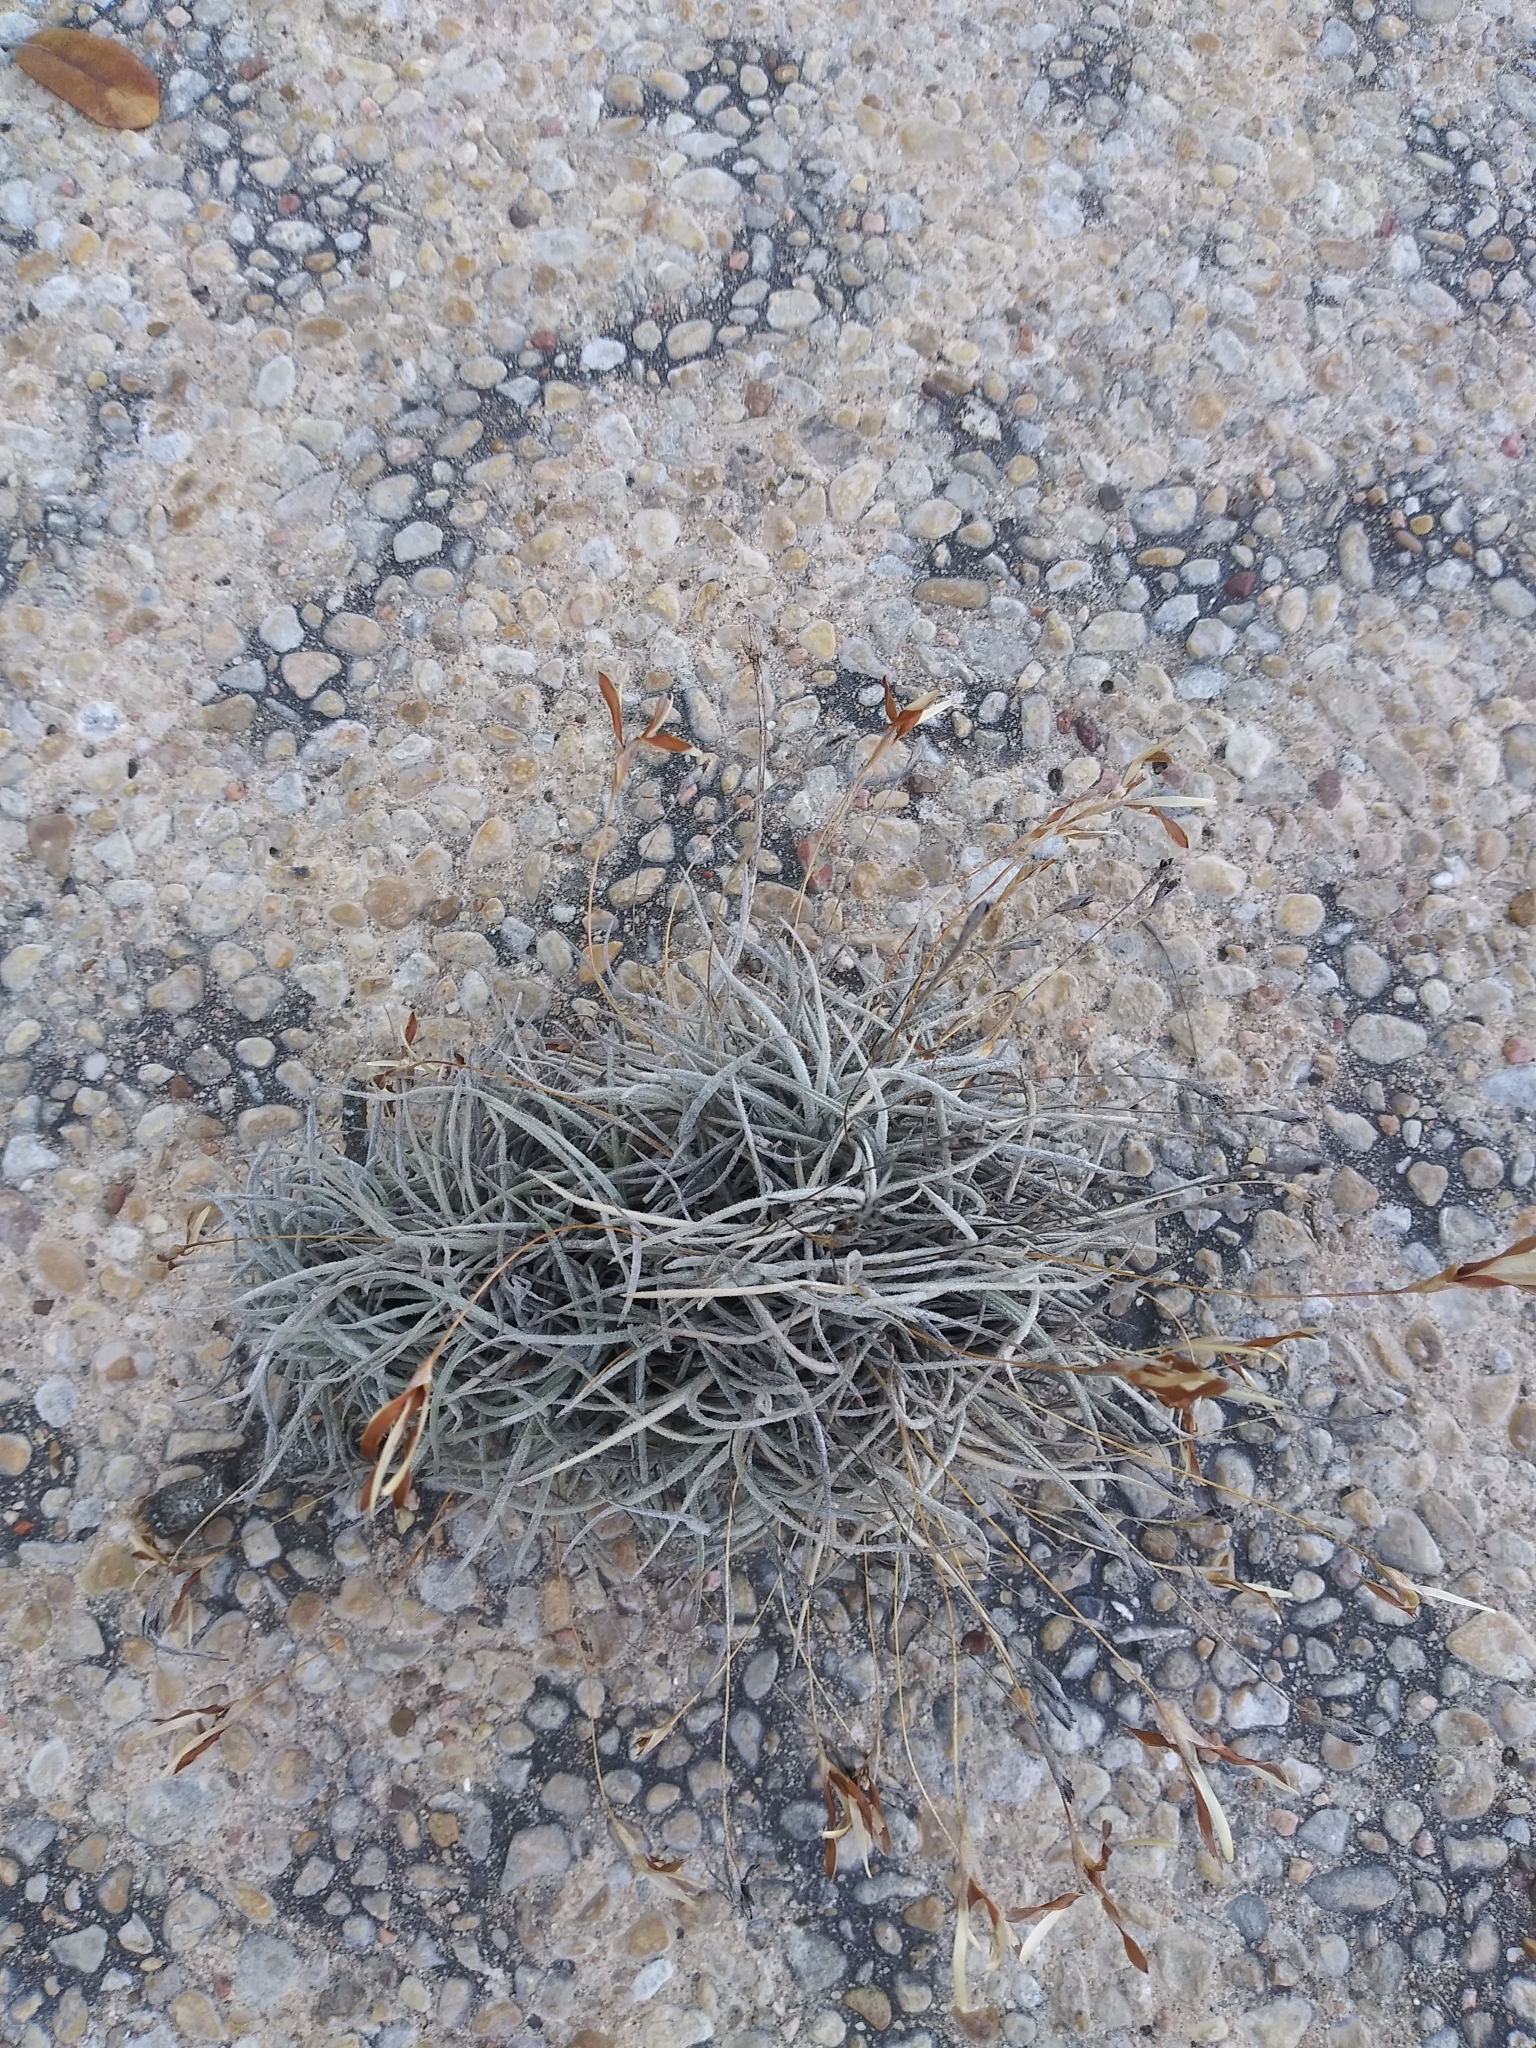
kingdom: Plantae
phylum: Tracheophyta
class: Liliopsida
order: Poales
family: Bromeliaceae
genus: Tillandsia
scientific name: Tillandsia recurvata
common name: Small ballmoss
